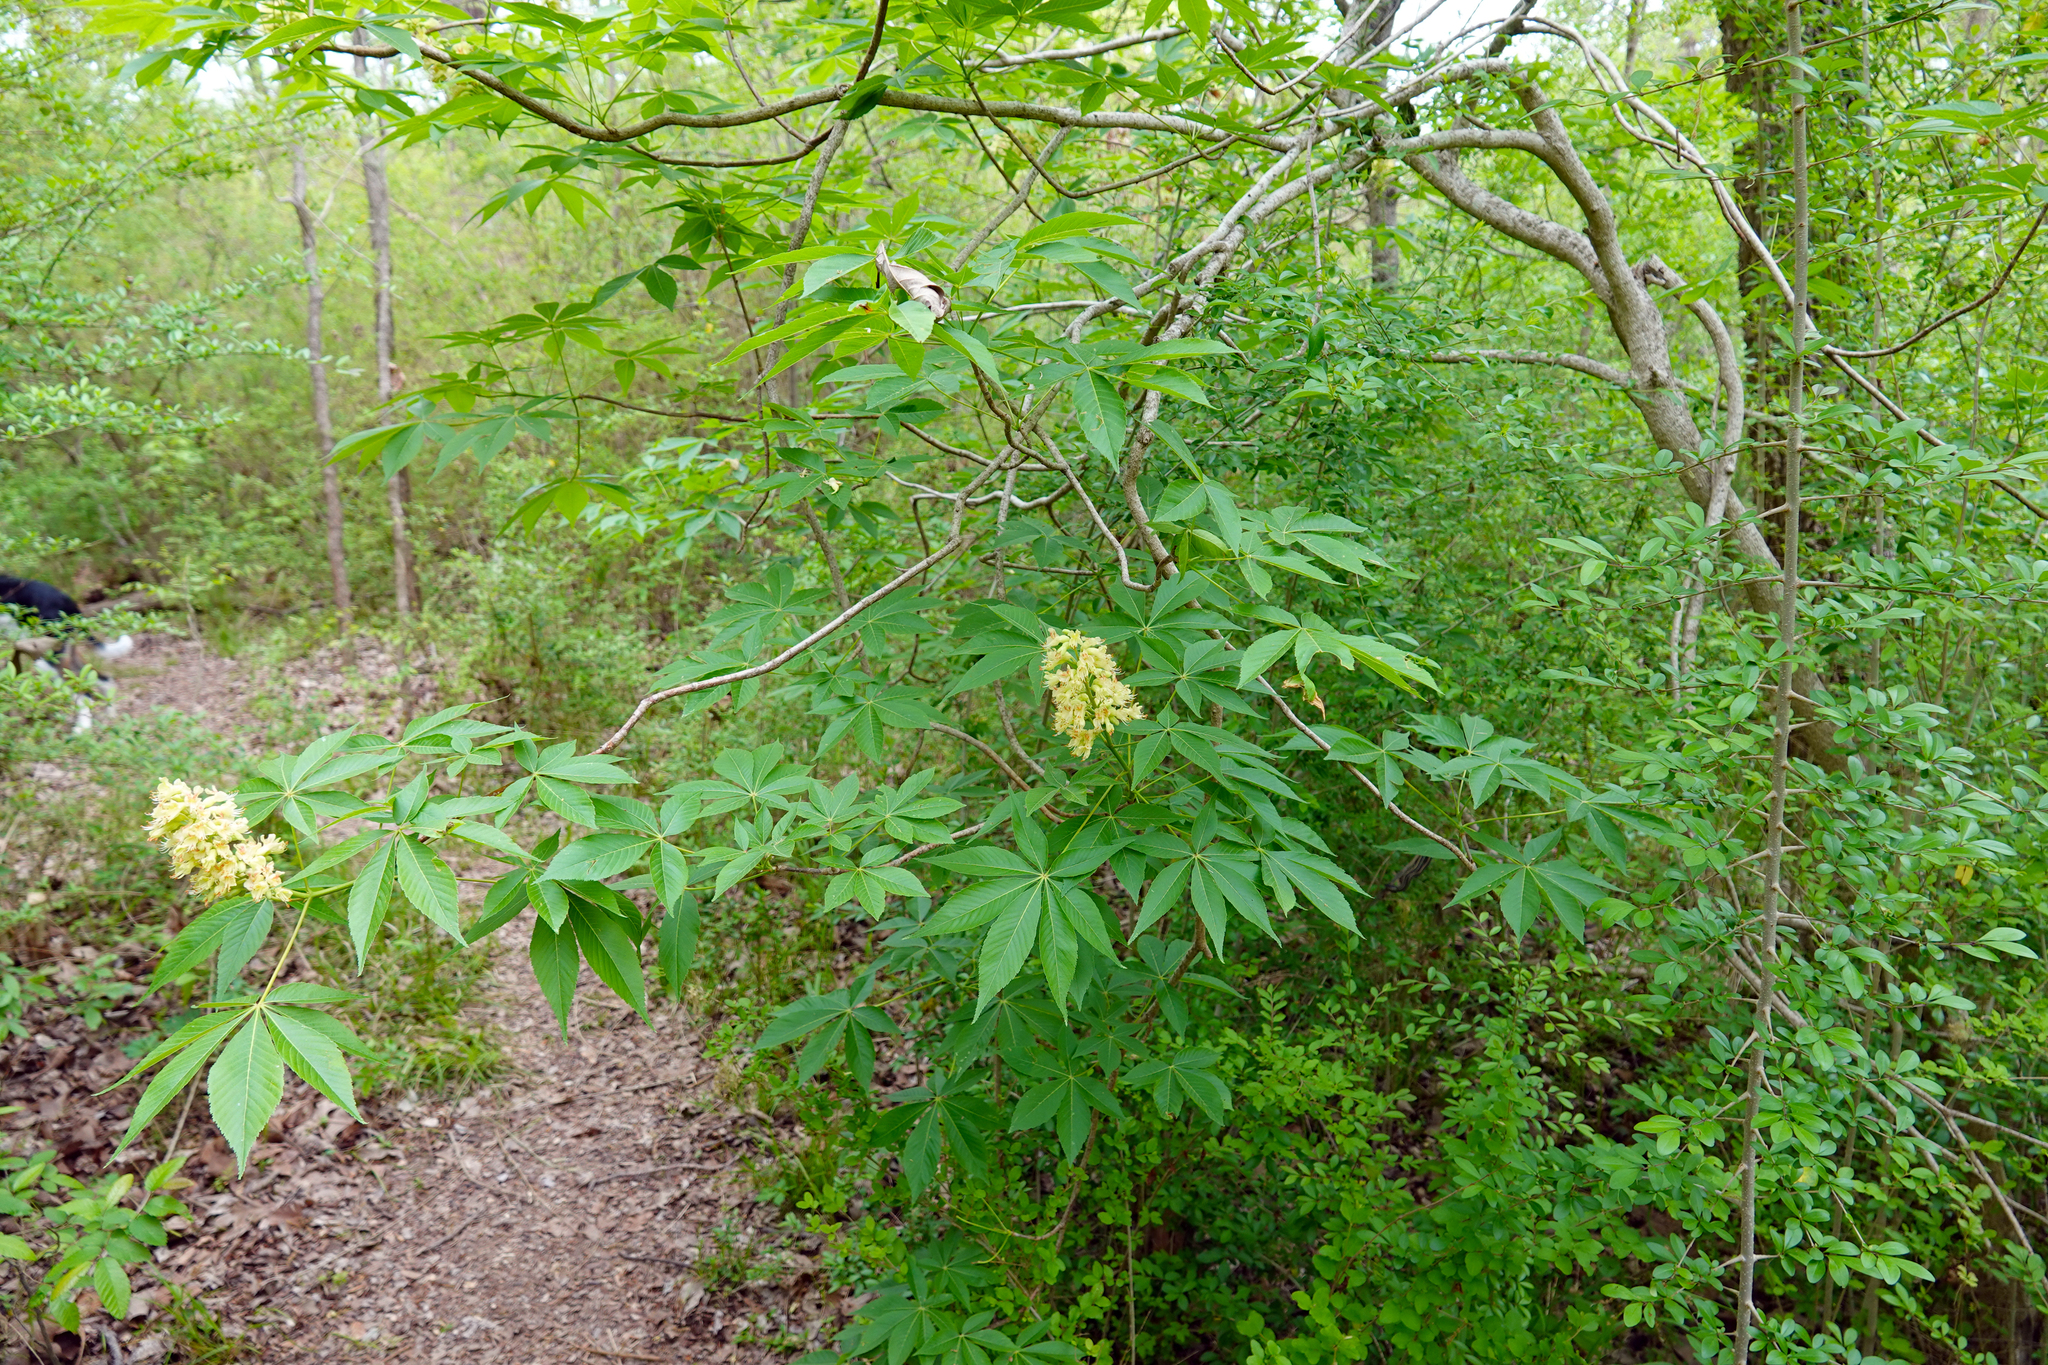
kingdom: Plantae
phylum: Tracheophyta
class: Magnoliopsida
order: Sapindales
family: Sapindaceae
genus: Aesculus
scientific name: Aesculus glabra
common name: Ohio buckeye
